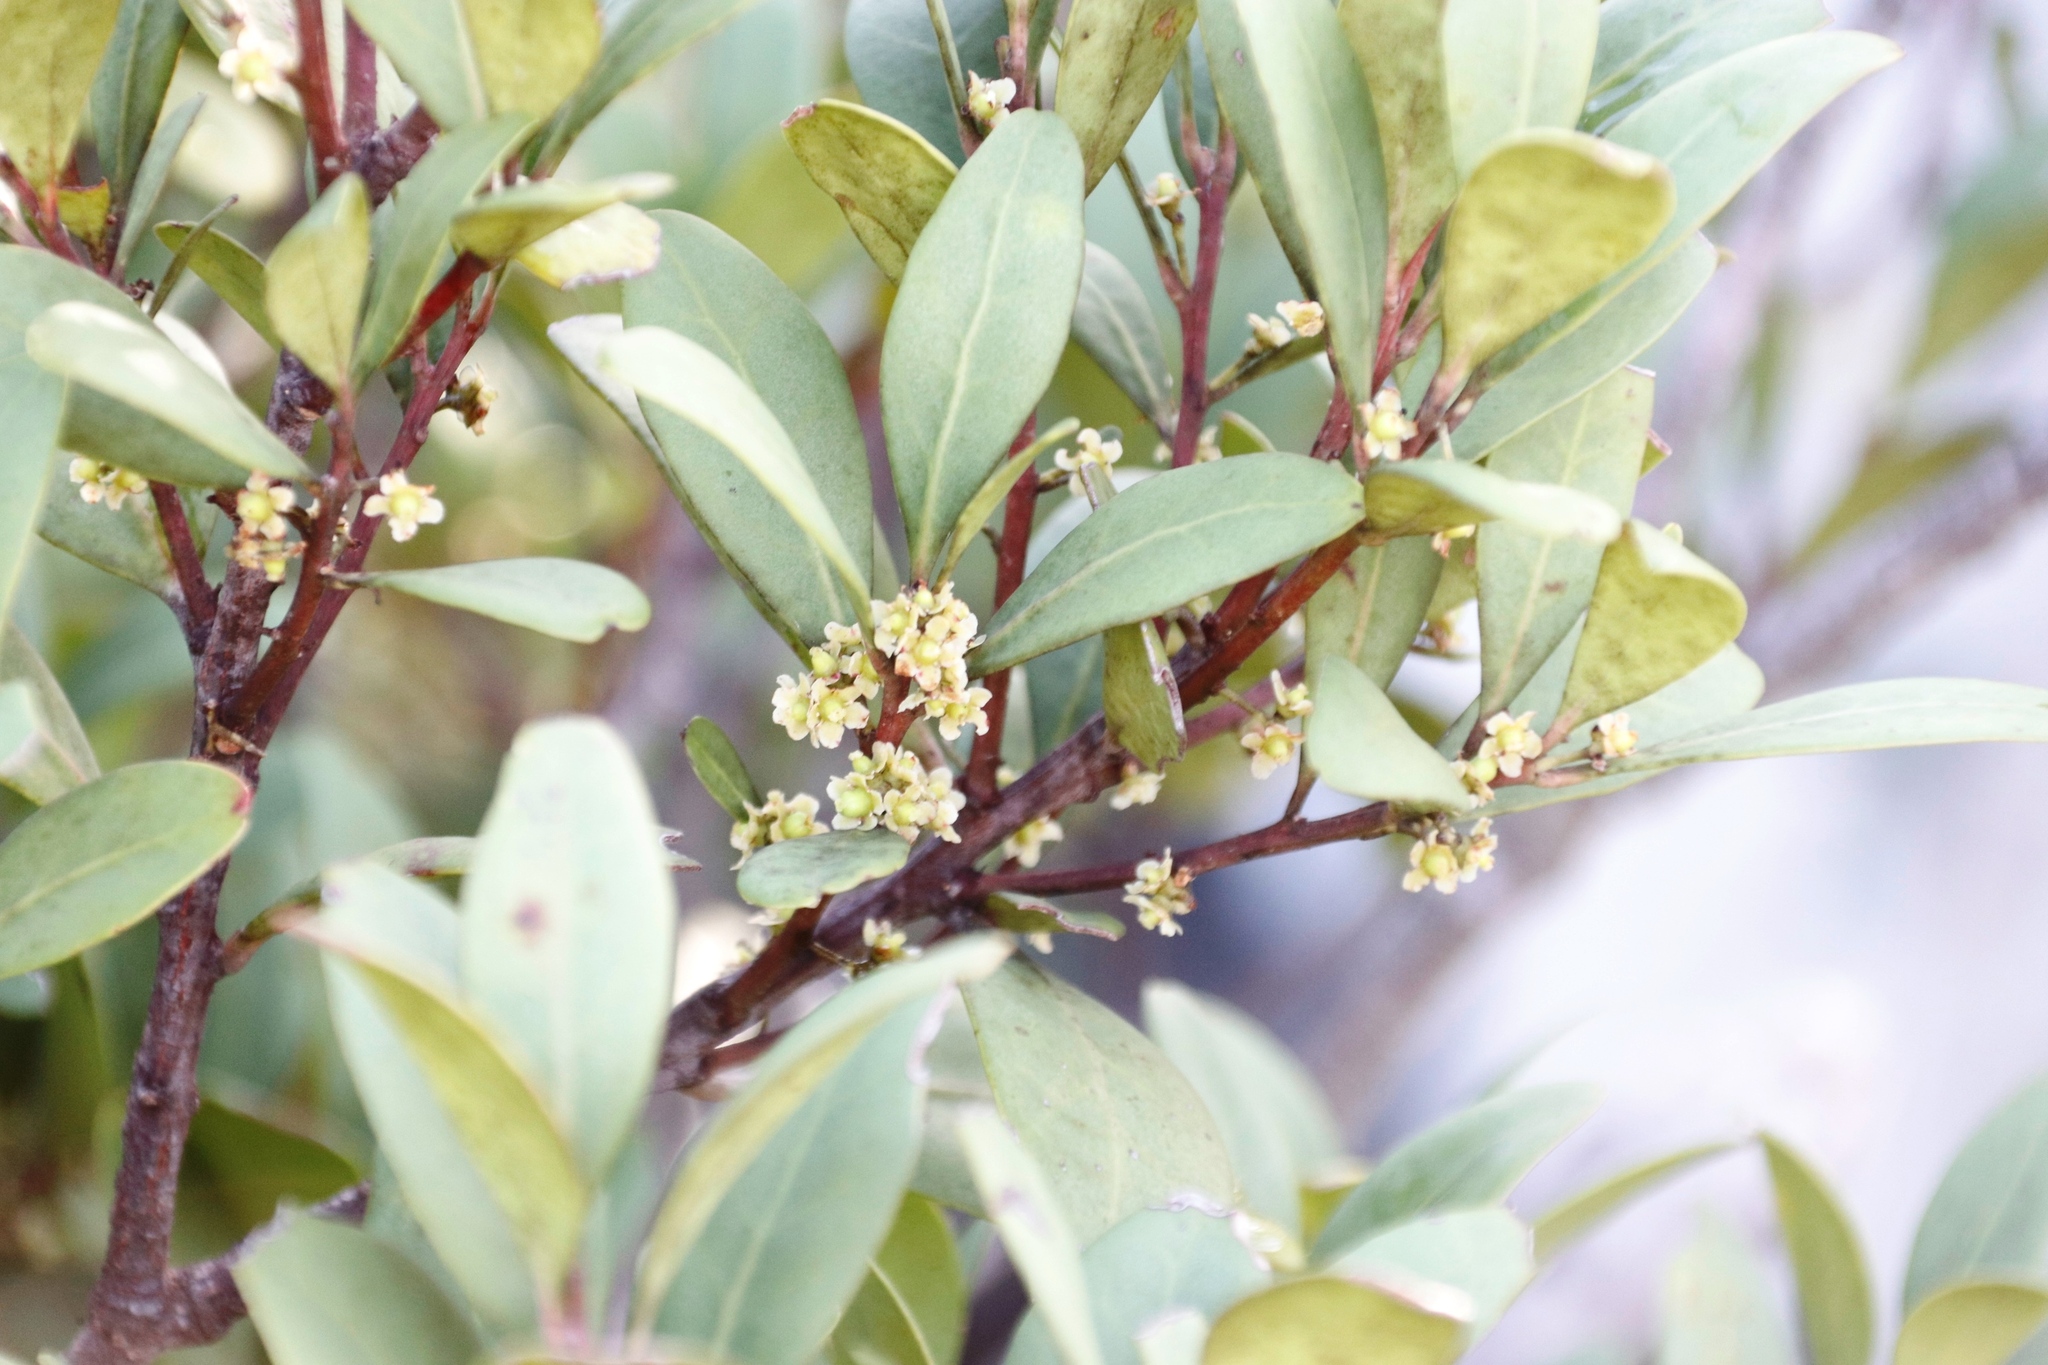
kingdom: Plantae
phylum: Tracheophyta
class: Magnoliopsida
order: Celastrales
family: Celastraceae
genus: Gymnosporia
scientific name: Gymnosporia laurina
